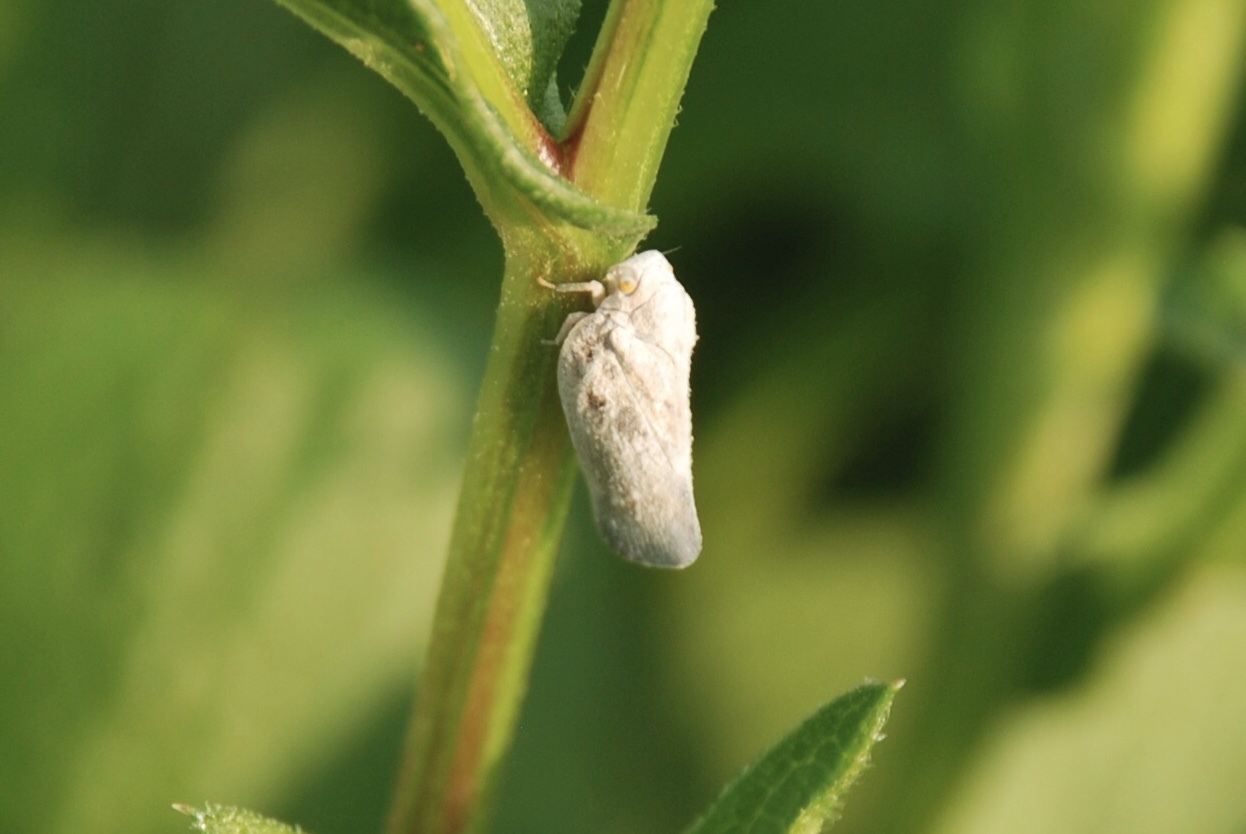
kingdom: Animalia
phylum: Arthropoda
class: Insecta
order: Hemiptera
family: Flatidae
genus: Metcalfa
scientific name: Metcalfa pruinosa
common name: Citrus flatid planthopper
